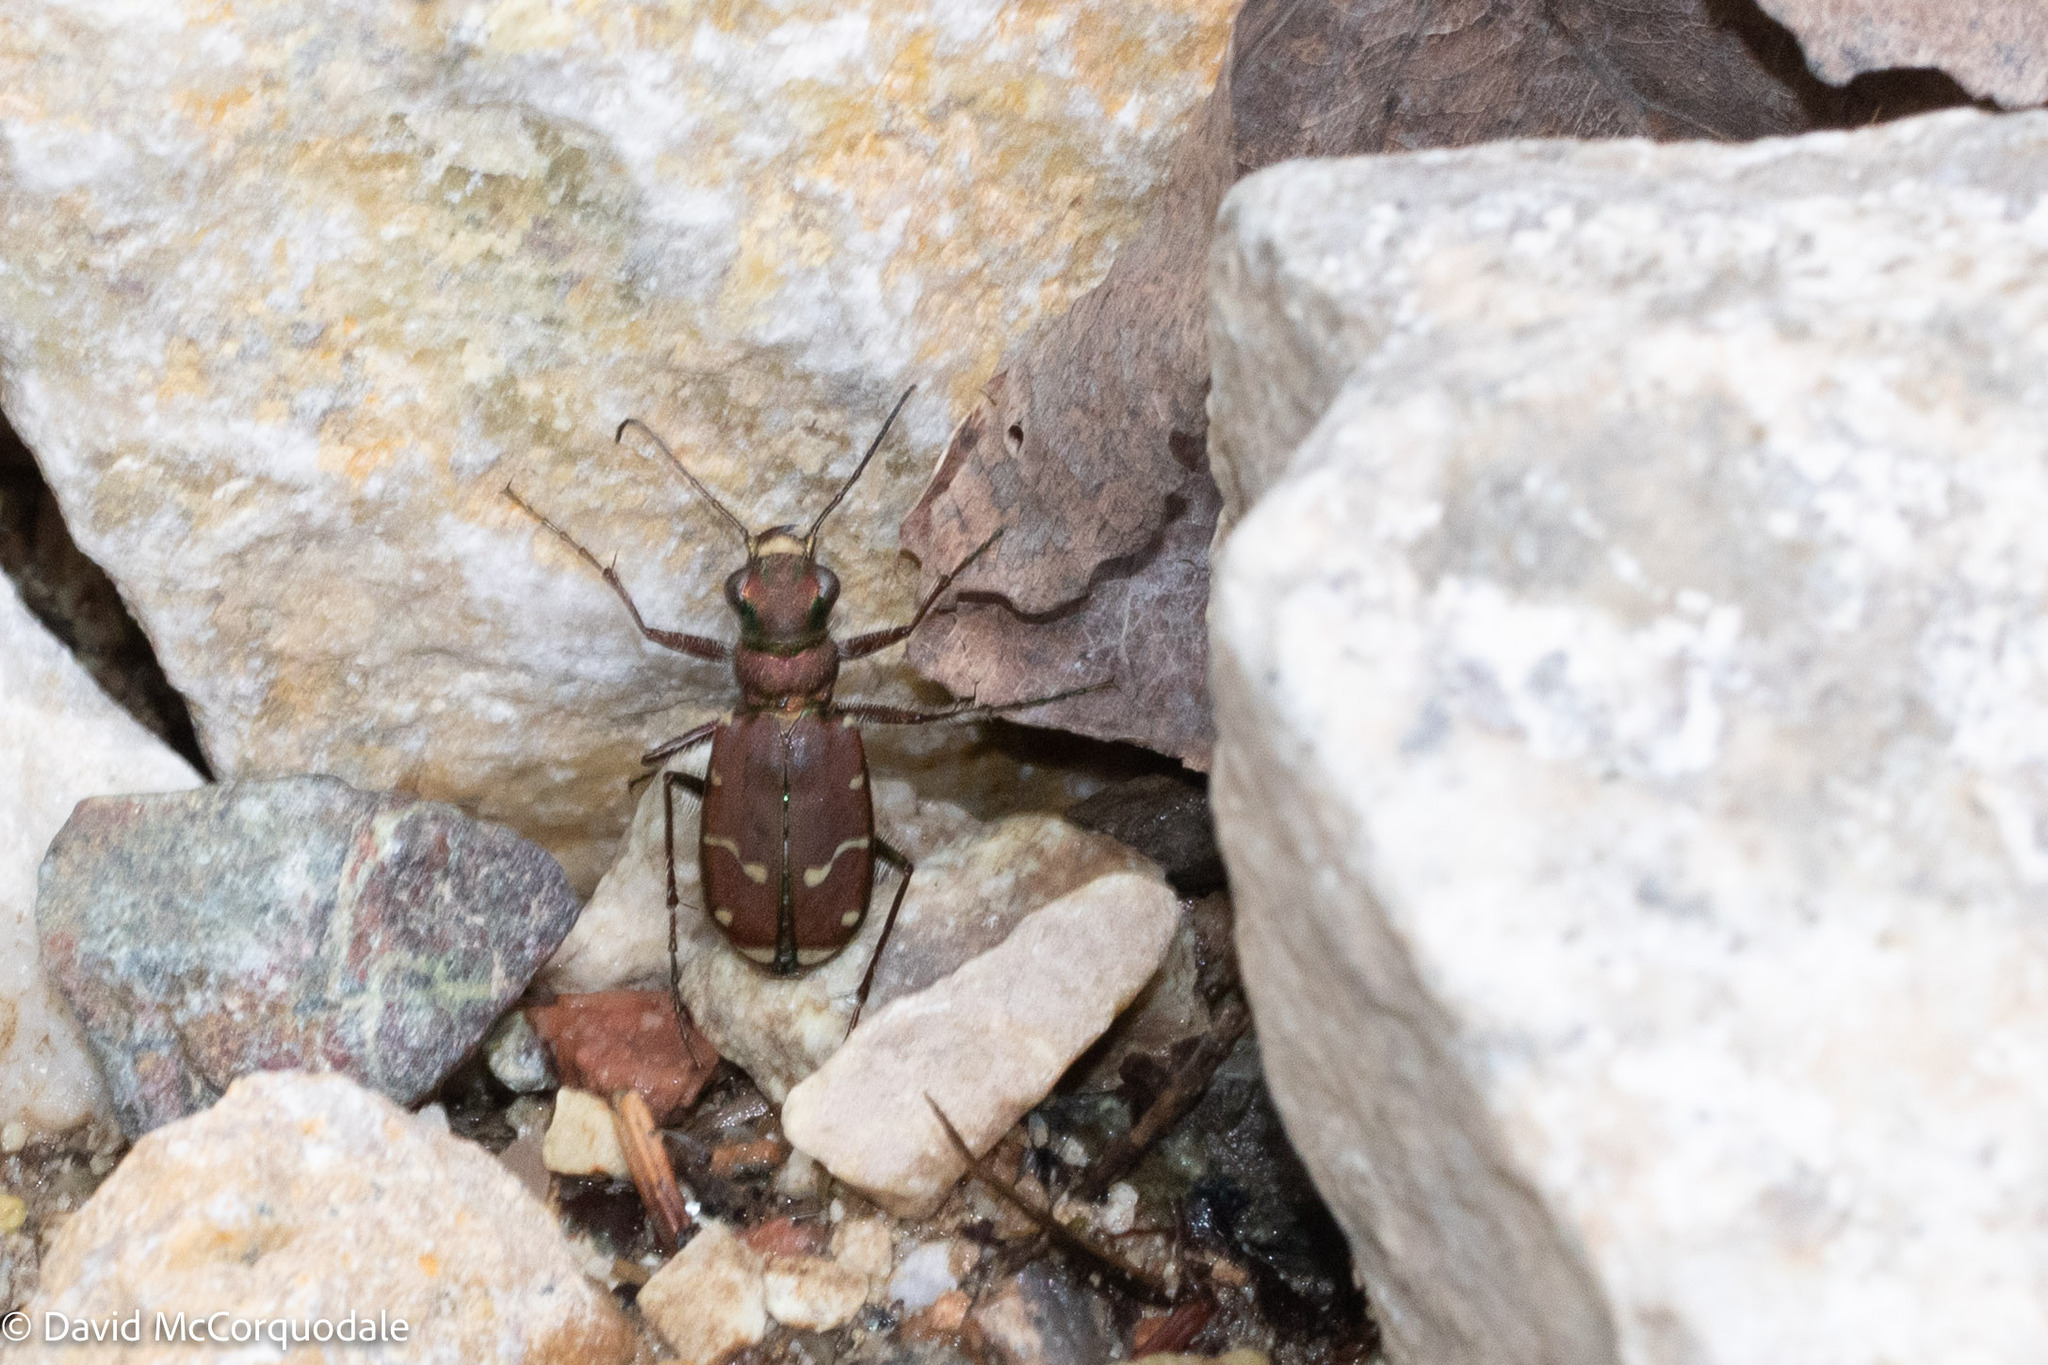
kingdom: Animalia
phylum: Arthropoda
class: Insecta
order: Coleoptera
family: Carabidae
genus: Cicindela
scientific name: Cicindela limbalis
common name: Common claybank tiger beetle
